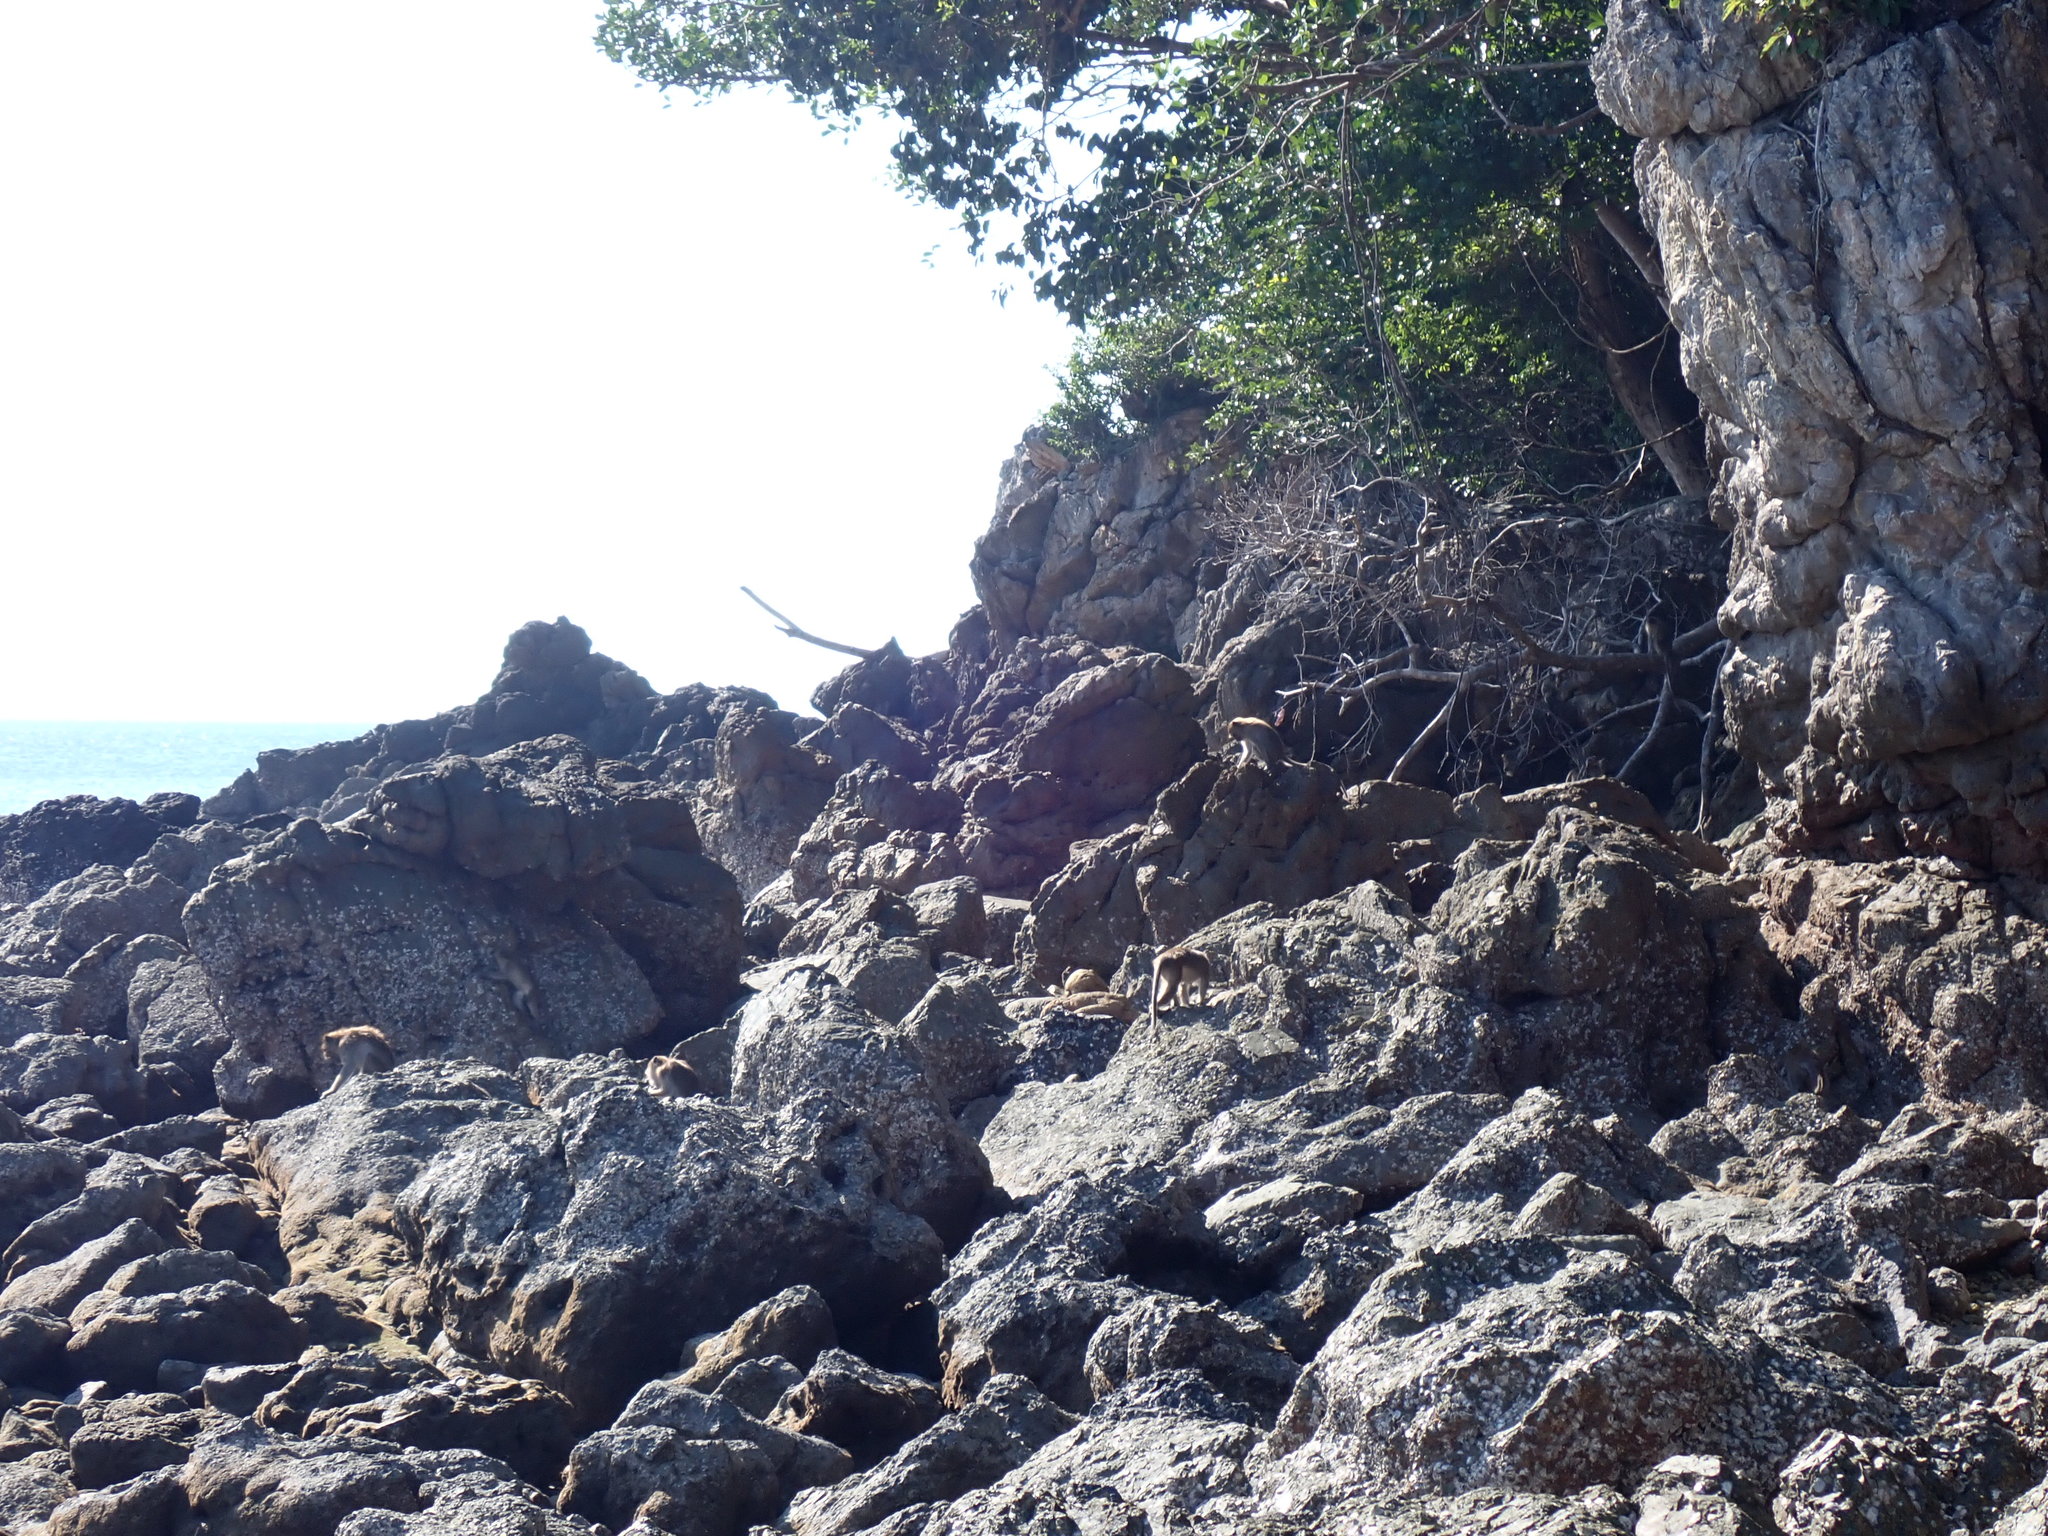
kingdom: Animalia
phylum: Chordata
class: Mammalia
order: Primates
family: Cercopithecidae
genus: Macaca
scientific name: Macaca fascicularis
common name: Crab-eating macaque
